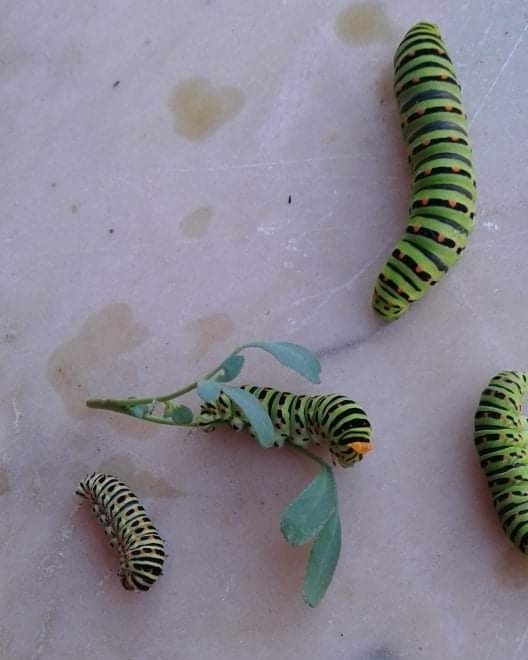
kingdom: Animalia
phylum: Arthropoda
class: Insecta
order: Lepidoptera
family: Papilionidae
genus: Papilio
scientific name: Papilio machaon
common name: Swallowtail
